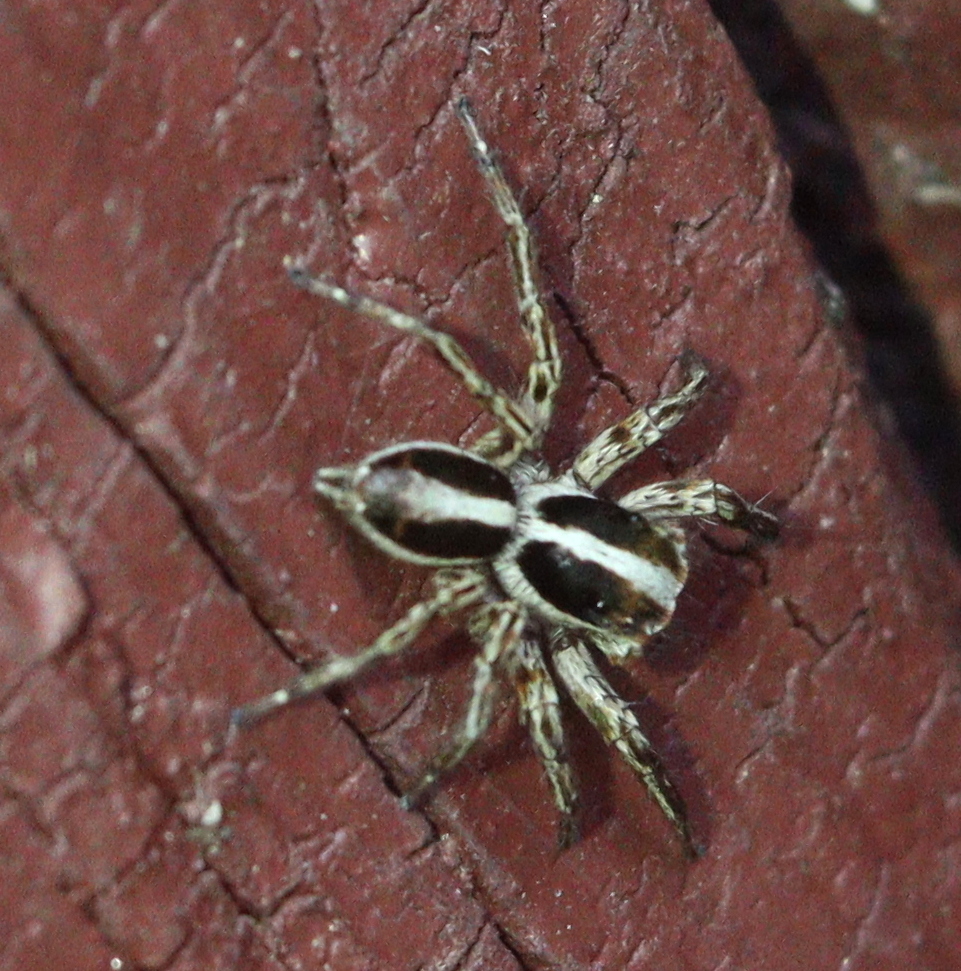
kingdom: Animalia
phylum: Arthropoda
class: Arachnida
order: Araneae
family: Salticidae
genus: Plexippus
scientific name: Plexippus paykulli
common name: Pantropical jumper
